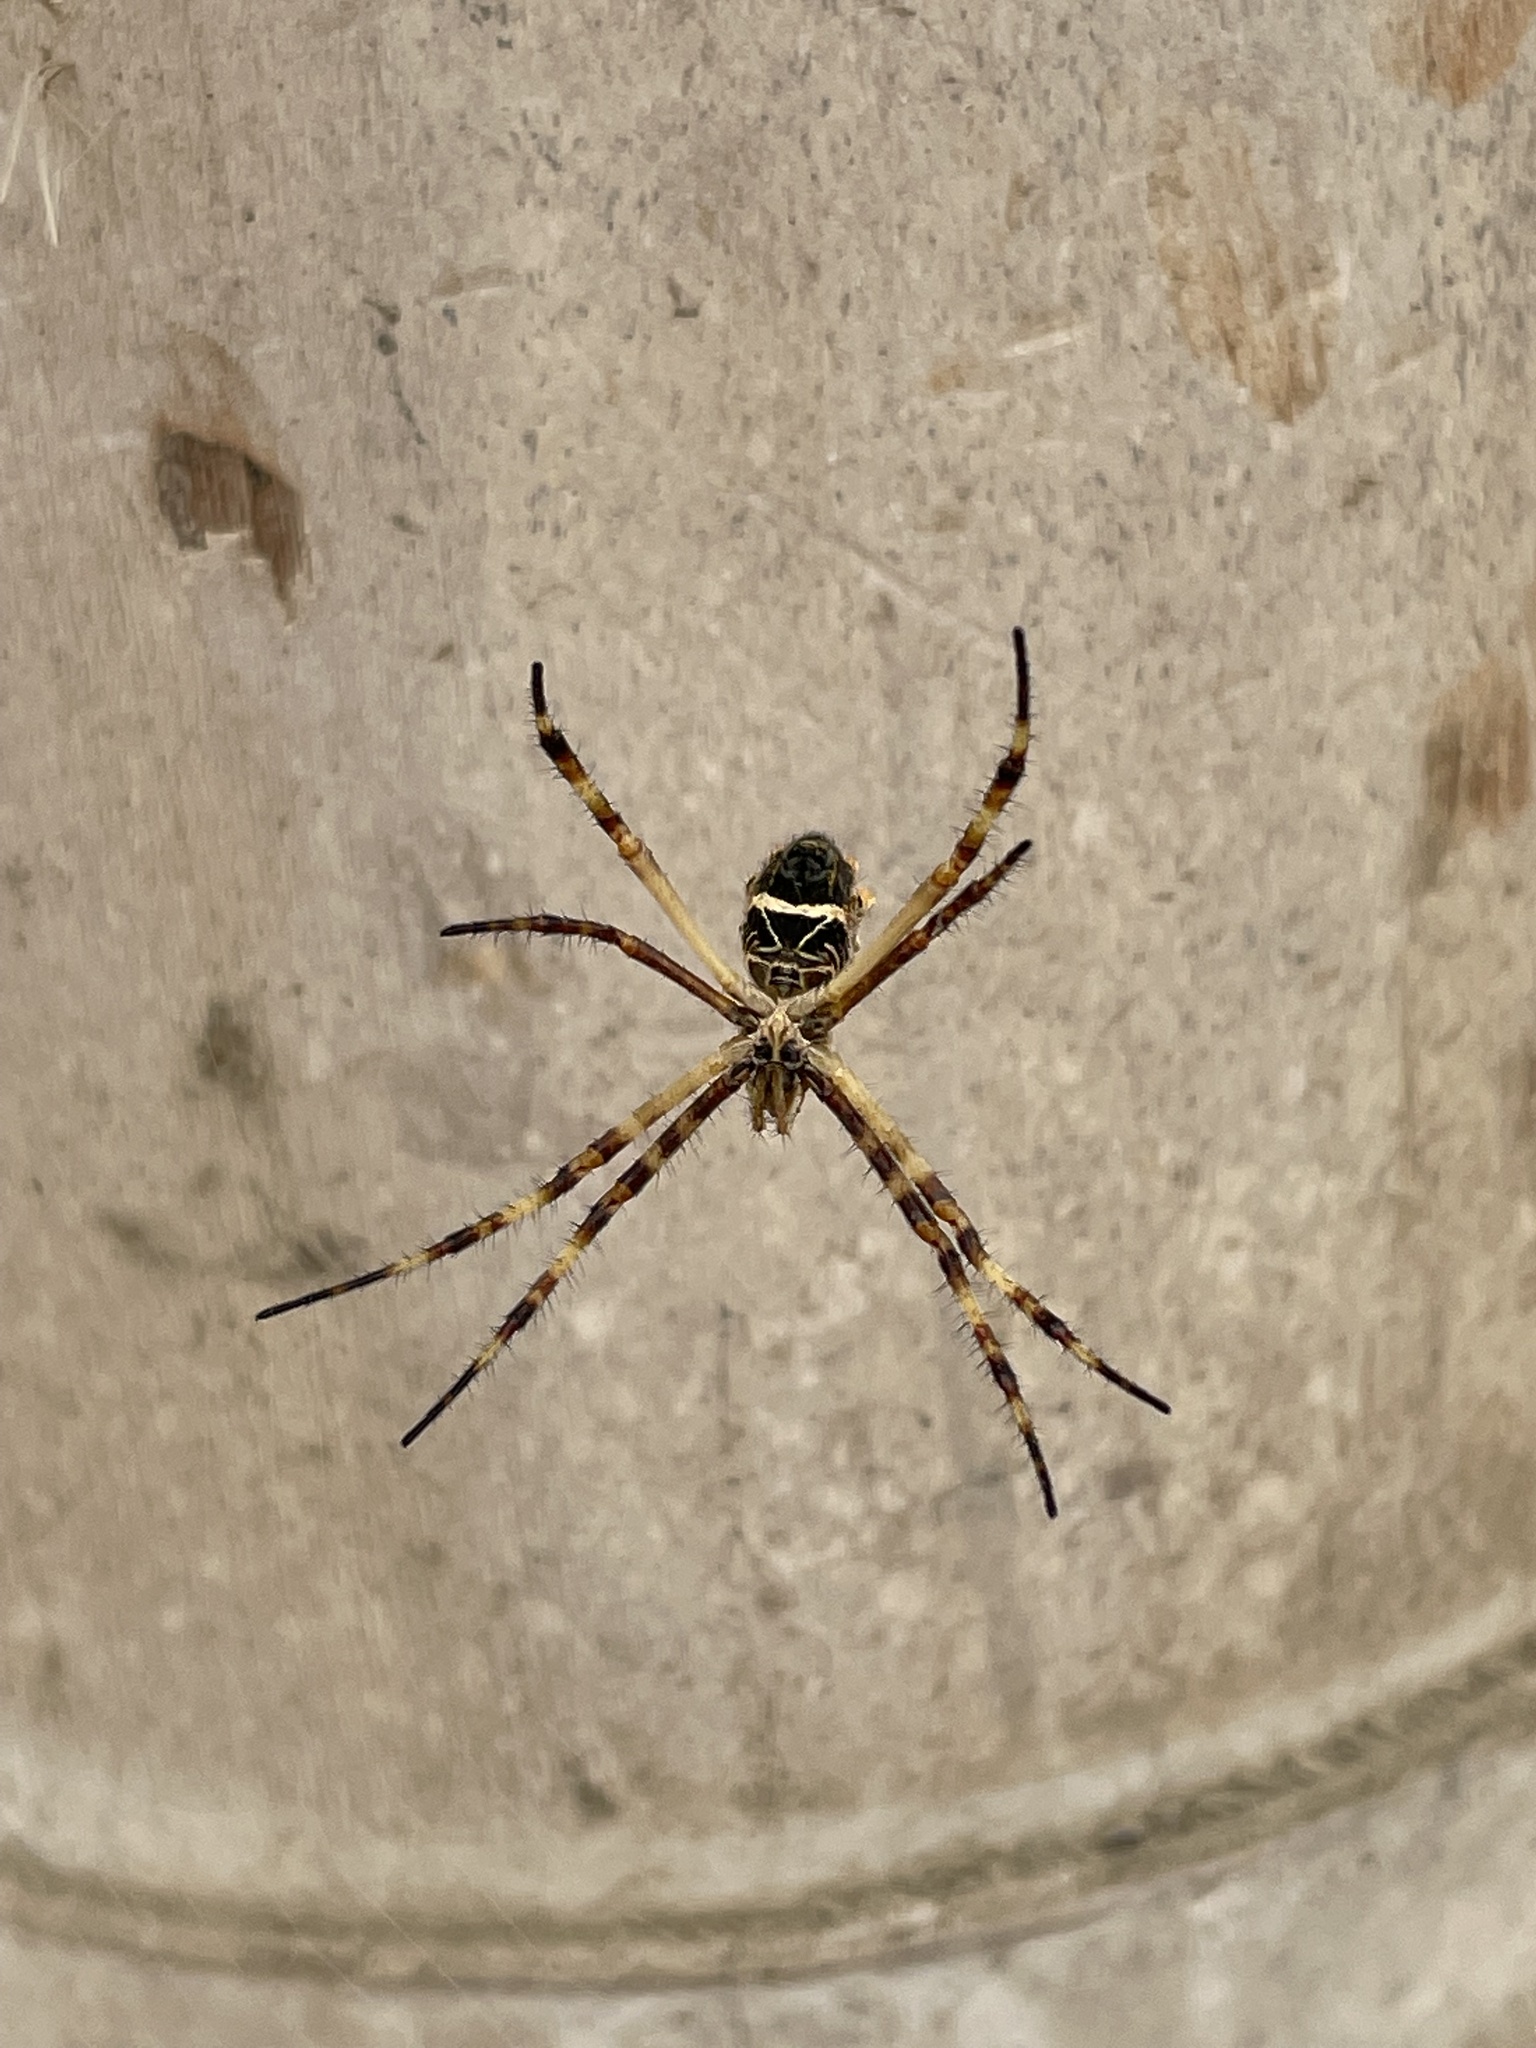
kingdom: Animalia
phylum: Arthropoda
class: Arachnida
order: Araneae
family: Araneidae
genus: Argiope
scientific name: Argiope argentata
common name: Orb weavers
